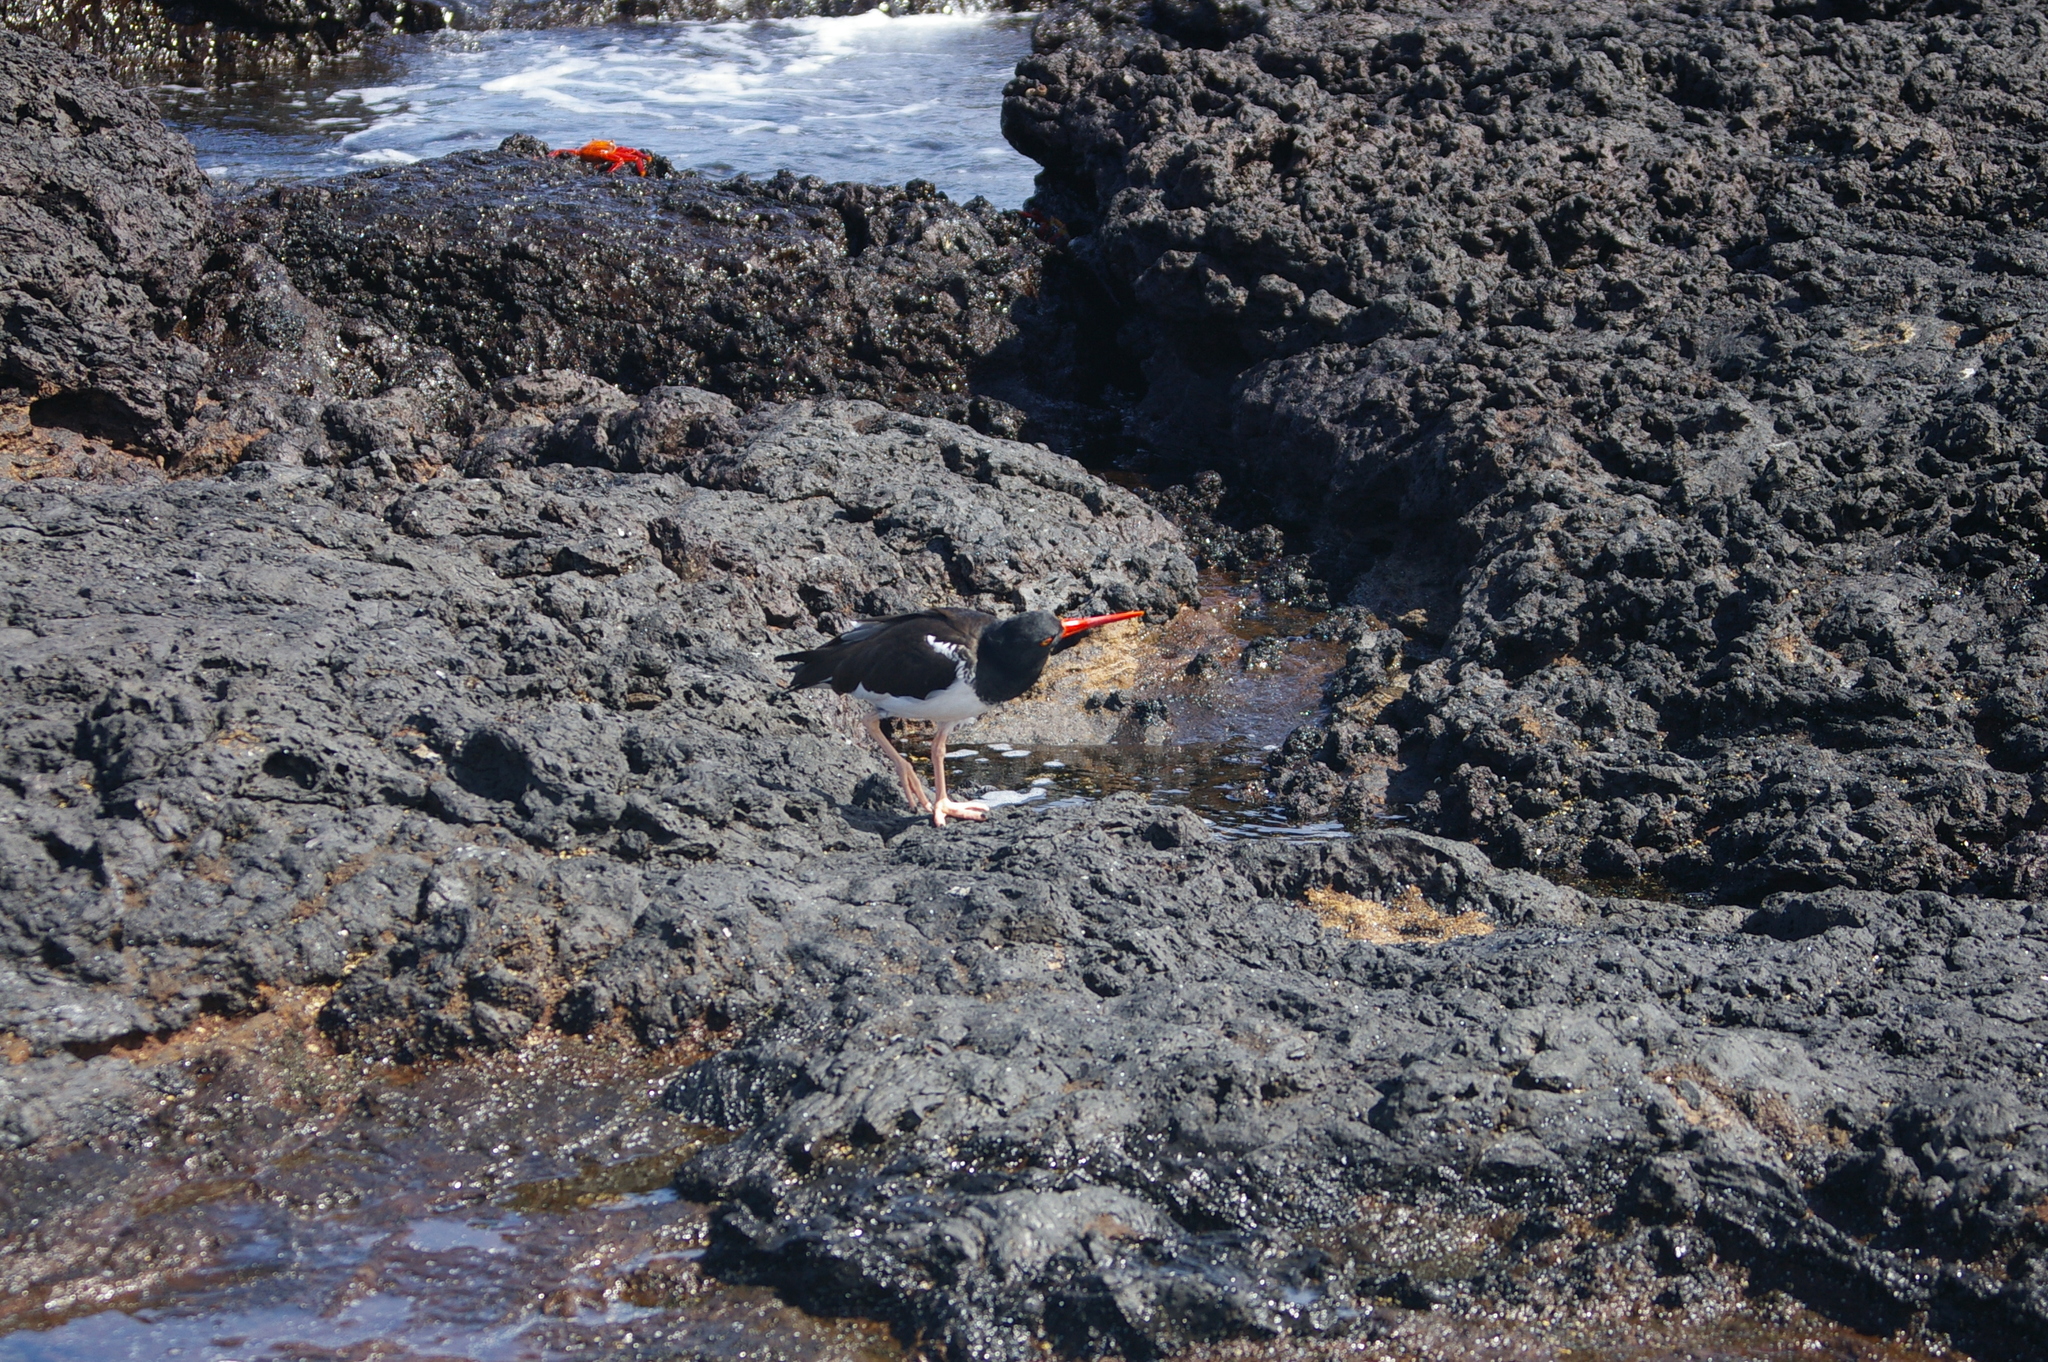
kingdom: Animalia
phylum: Chordata
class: Aves
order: Charadriiformes
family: Haematopodidae
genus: Haematopus
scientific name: Haematopus palliatus
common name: American oystercatcher
